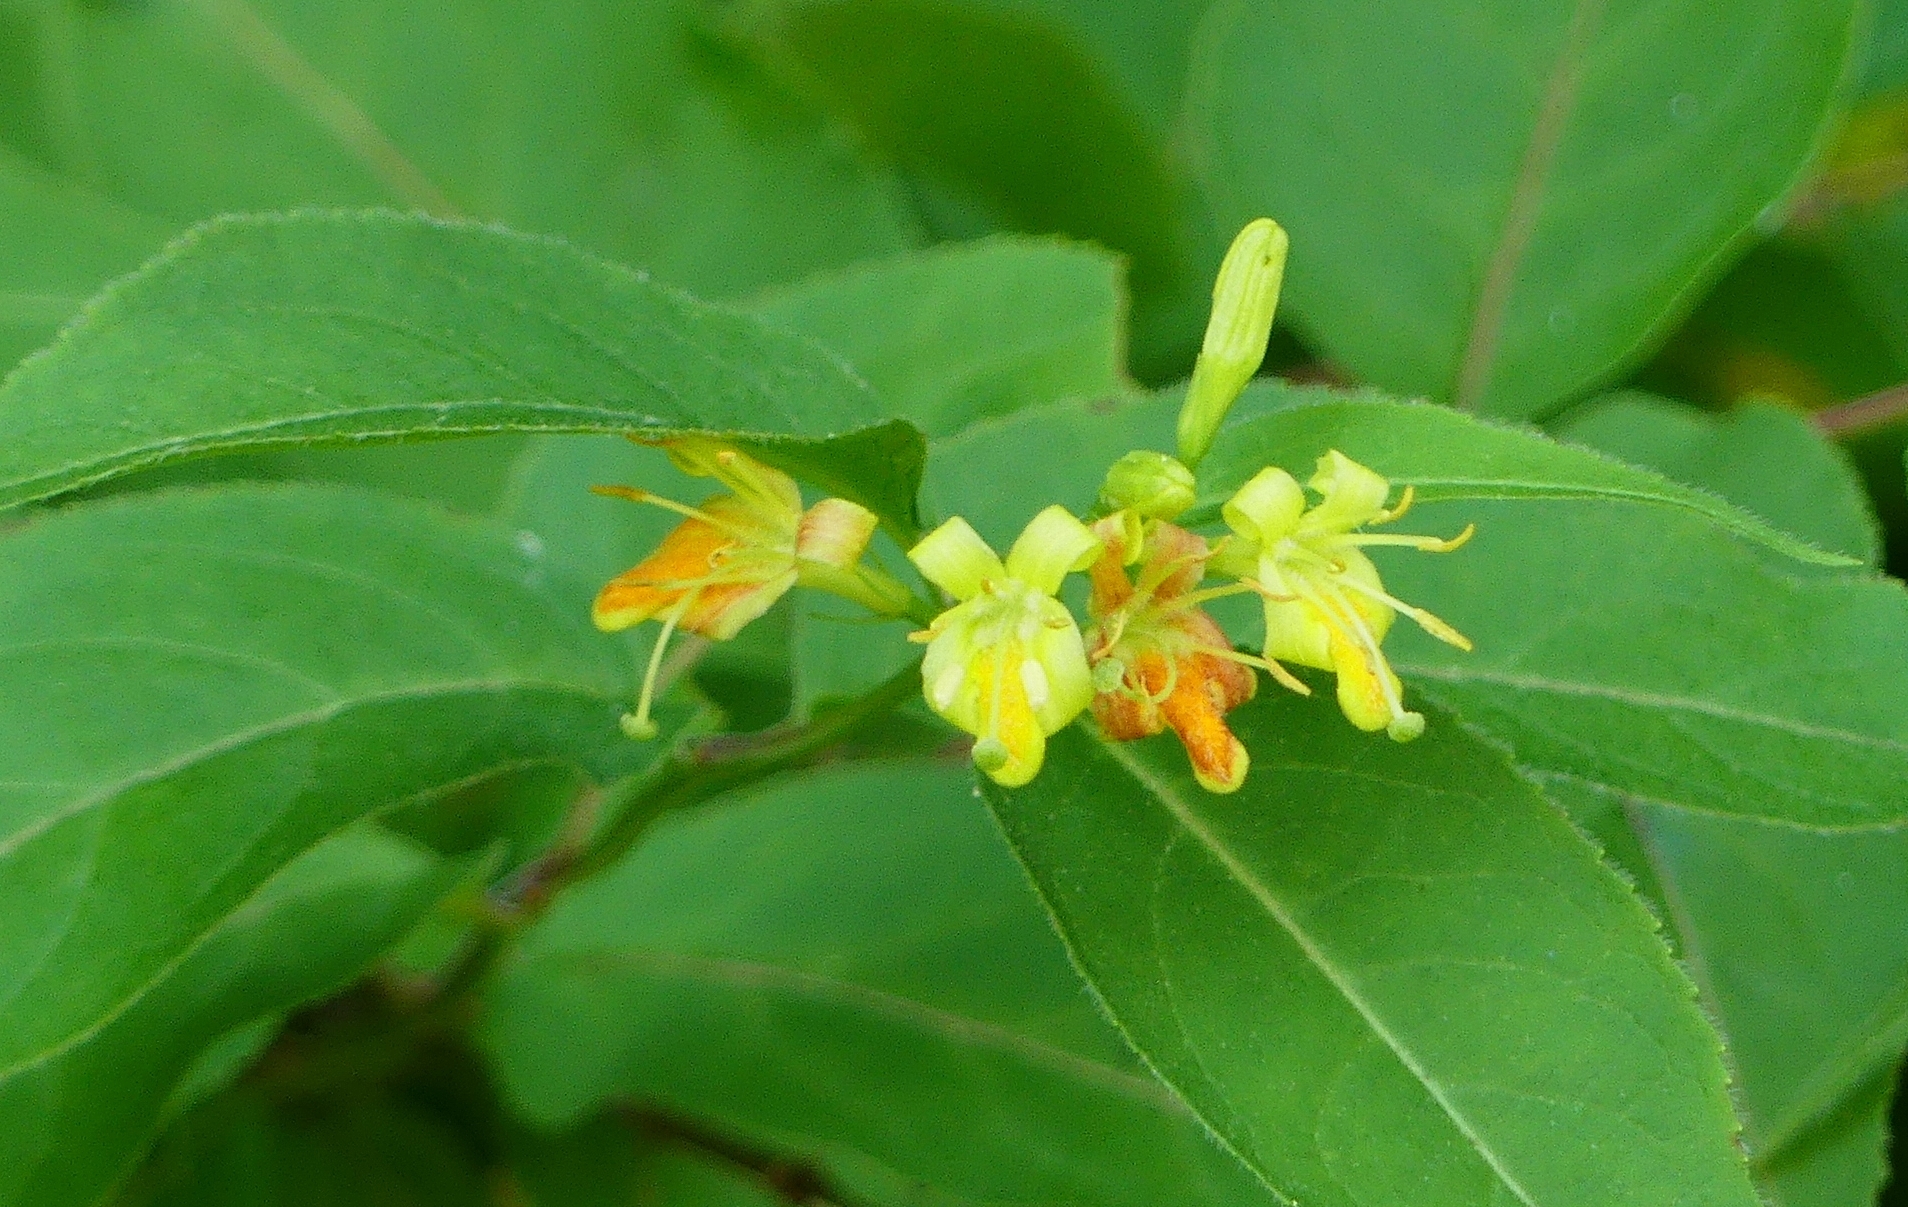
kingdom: Plantae
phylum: Tracheophyta
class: Magnoliopsida
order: Dipsacales
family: Caprifoliaceae
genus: Diervilla
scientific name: Diervilla lonicera
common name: Bush-honeysuckle
